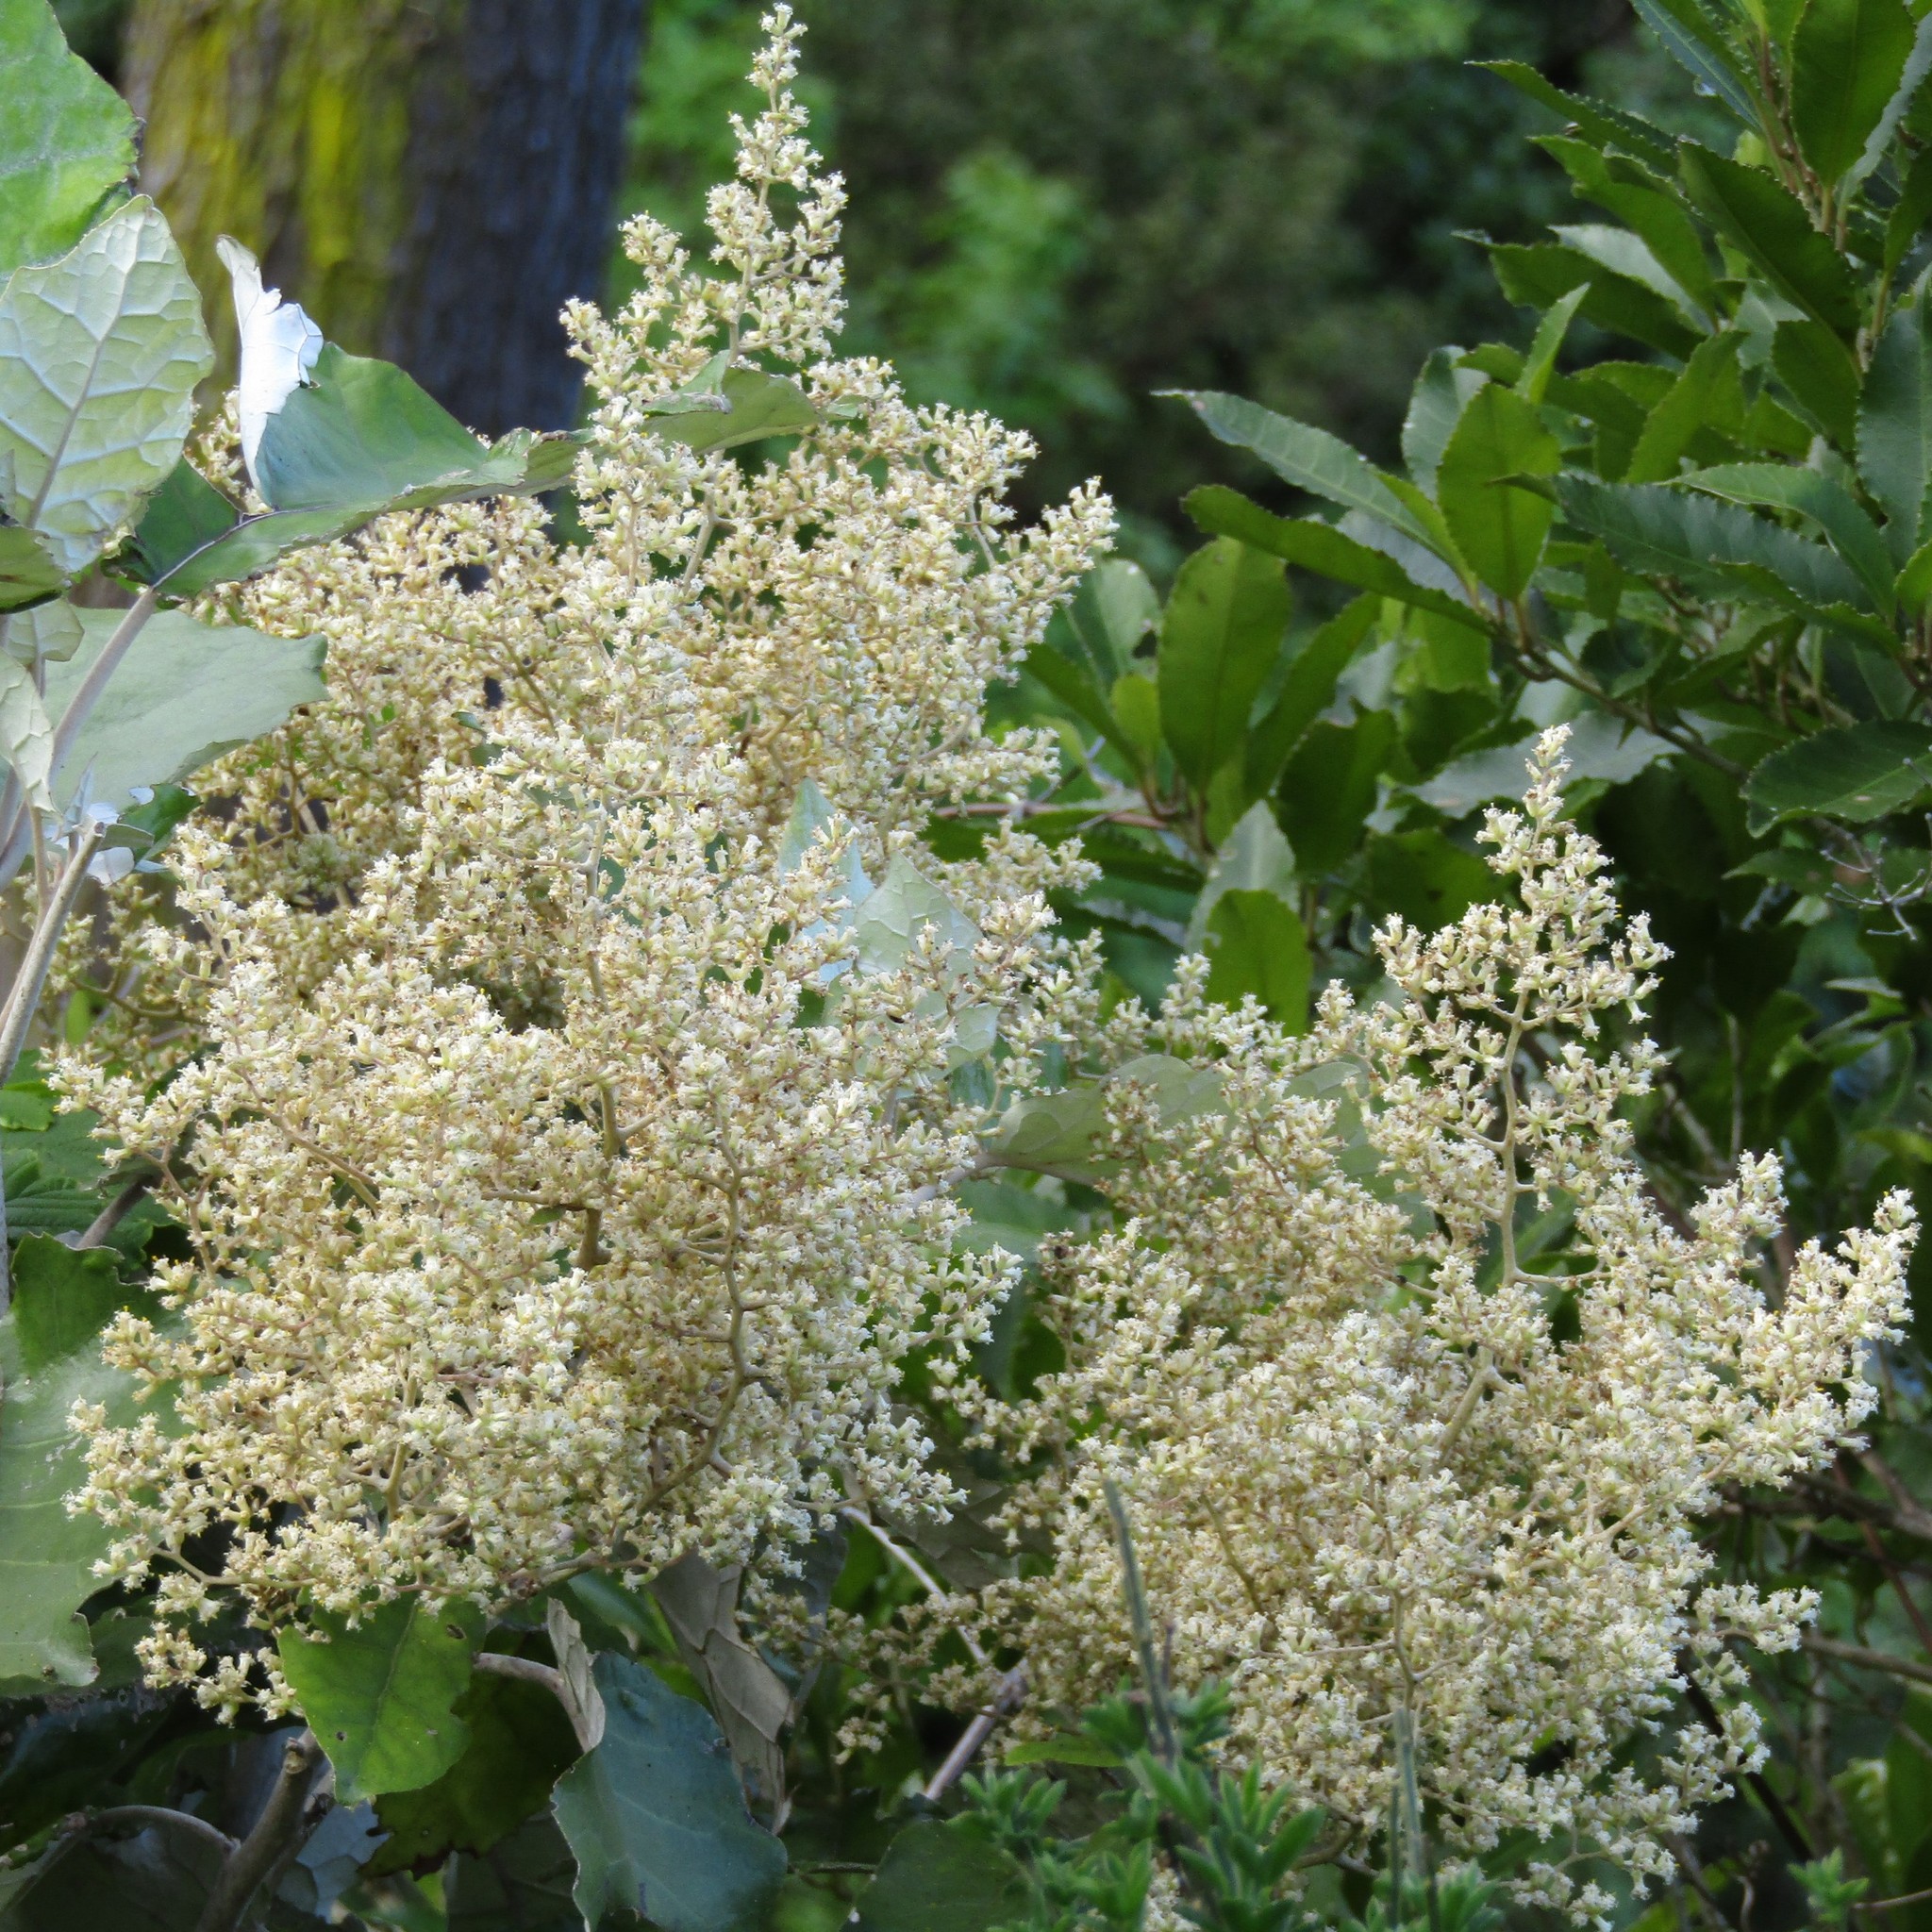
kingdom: Plantae
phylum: Tracheophyta
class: Magnoliopsida
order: Asterales
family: Asteraceae
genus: Brachyglottis
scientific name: Brachyglottis repanda
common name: Hedge ragwort
